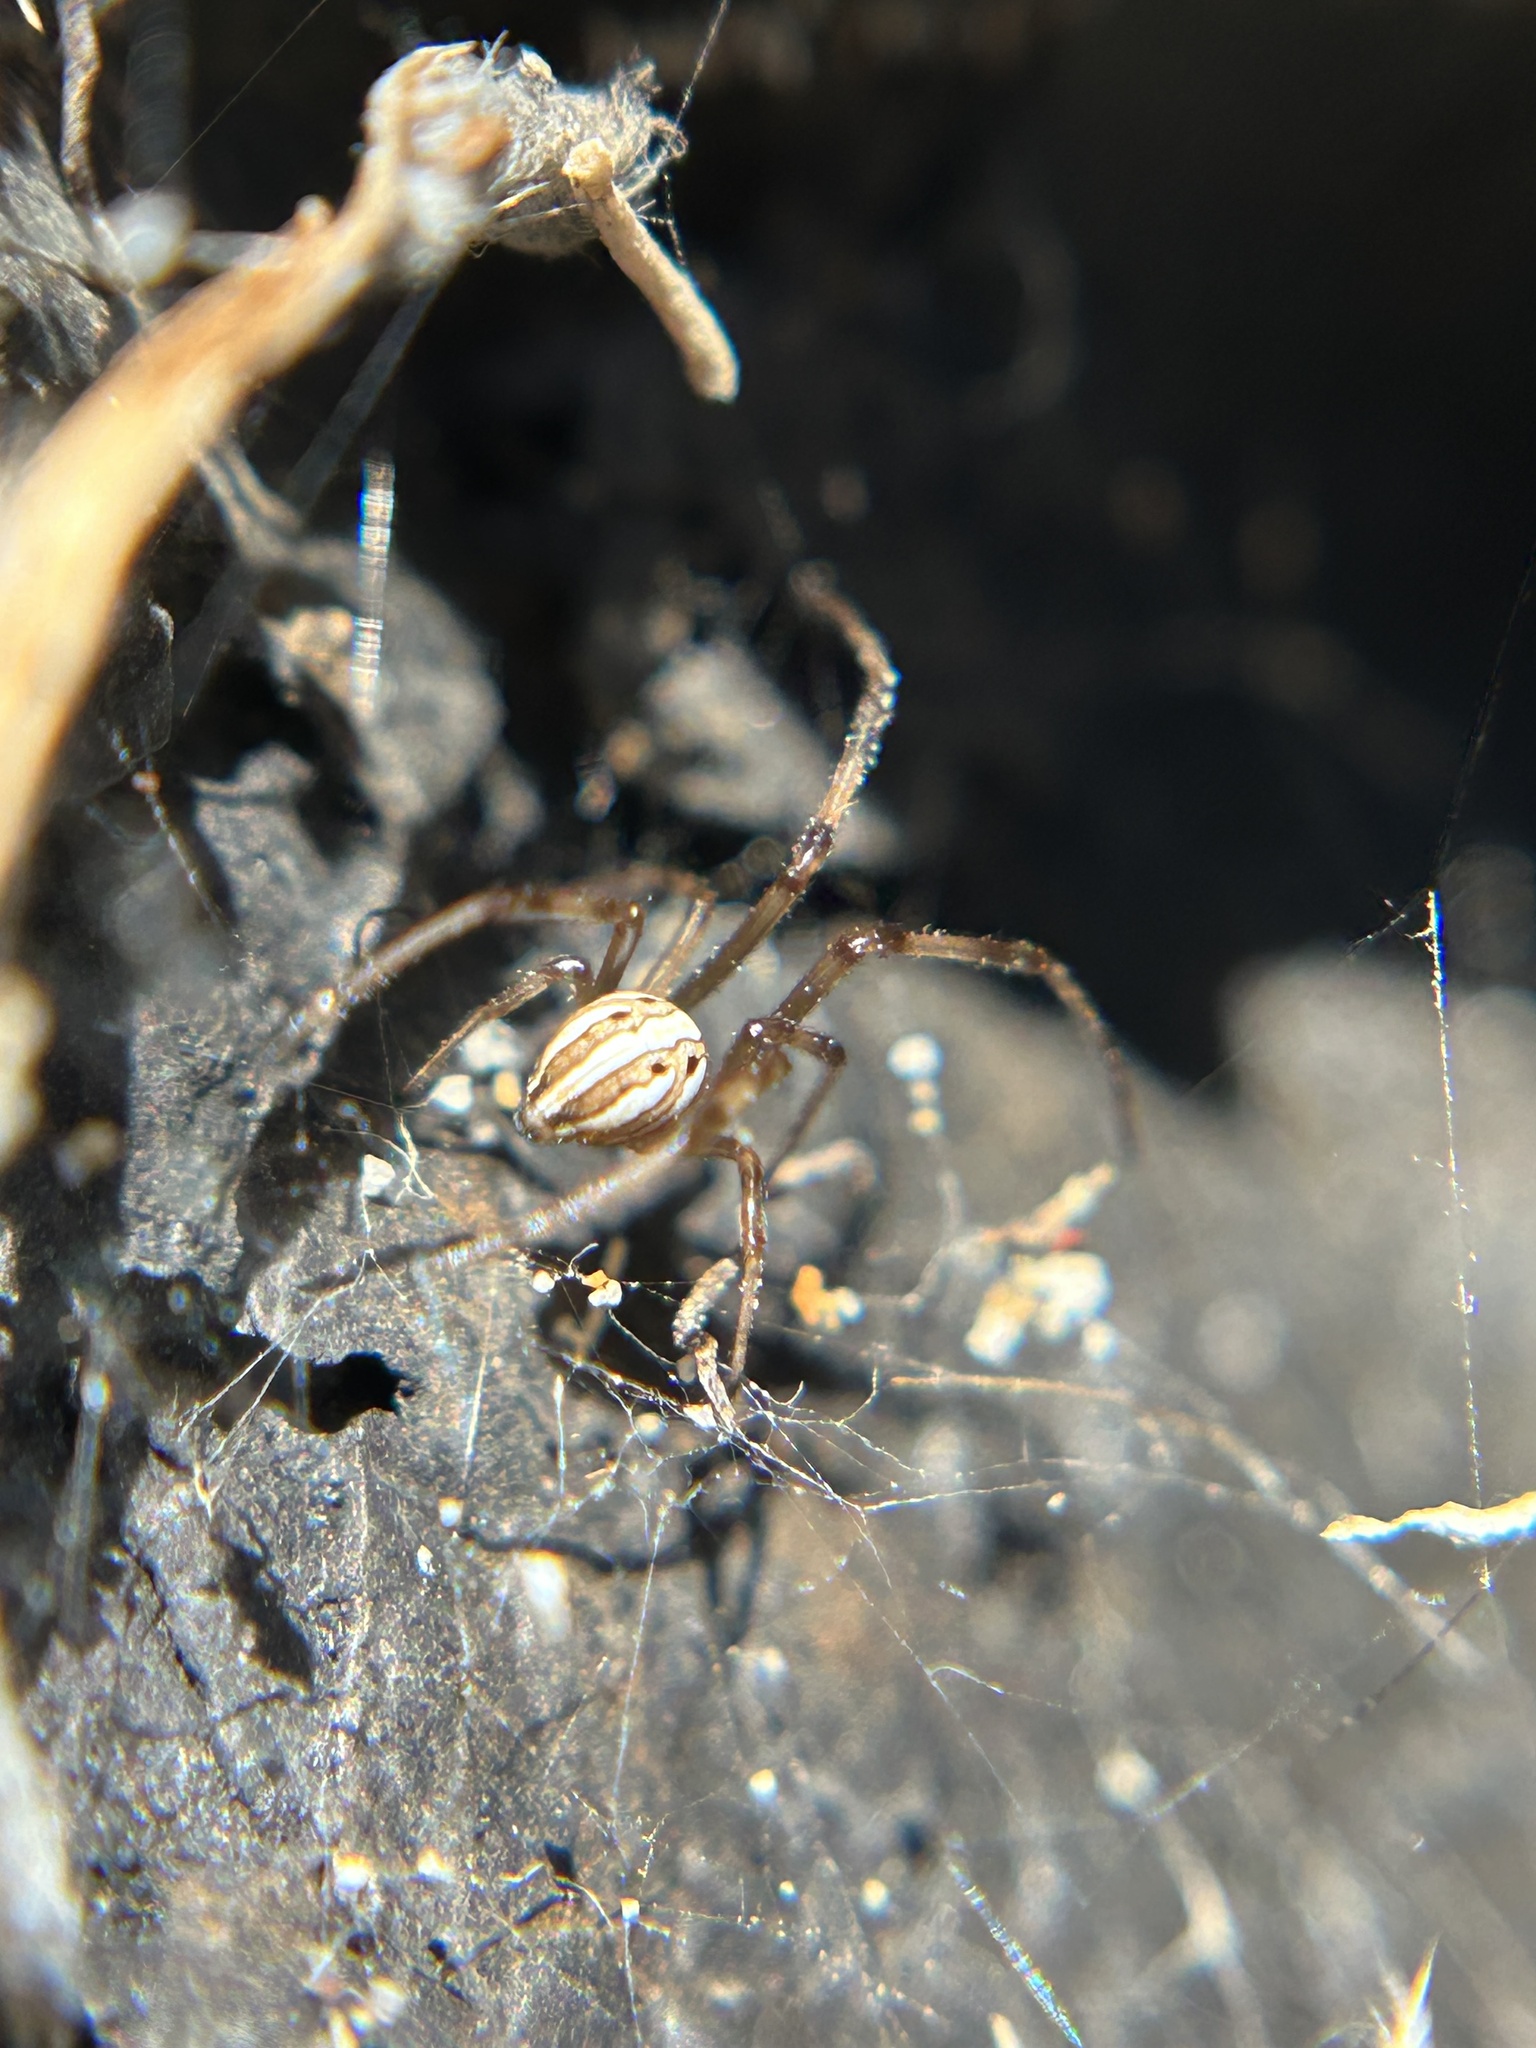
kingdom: Animalia
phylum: Arthropoda
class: Arachnida
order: Araneae
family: Theridiidae
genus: Latrodectus
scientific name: Latrodectus hesperus
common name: Western black widow
